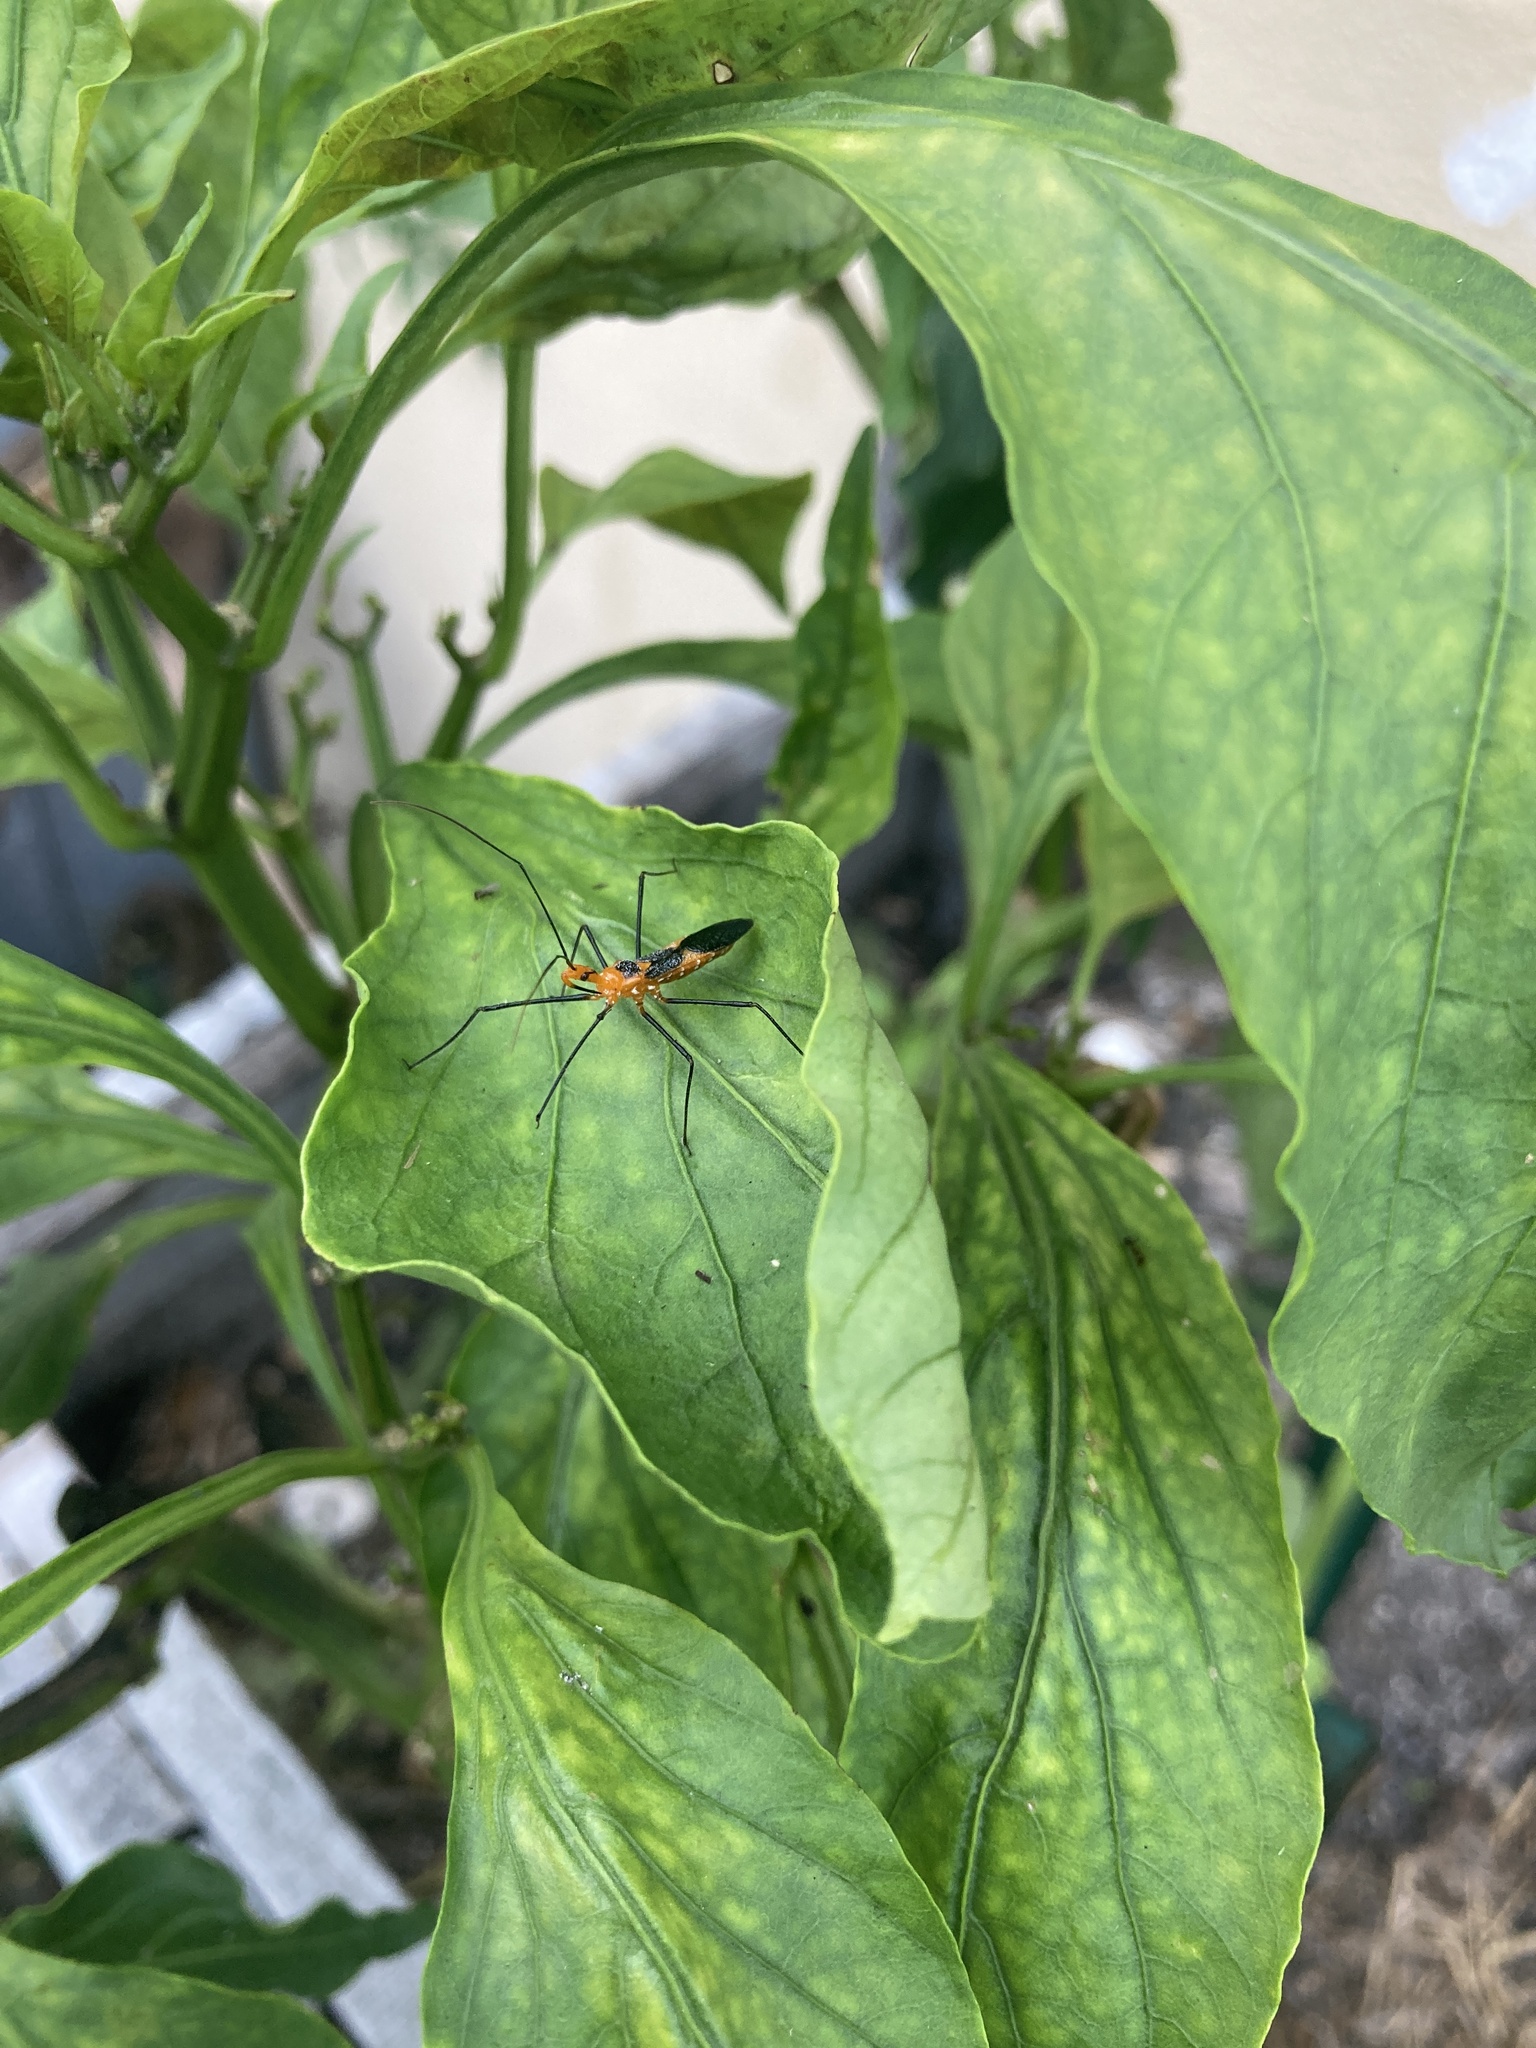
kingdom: Animalia
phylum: Arthropoda
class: Insecta
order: Hemiptera
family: Reduviidae
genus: Zelus
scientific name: Zelus longipes
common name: Milkweed assassin bug
